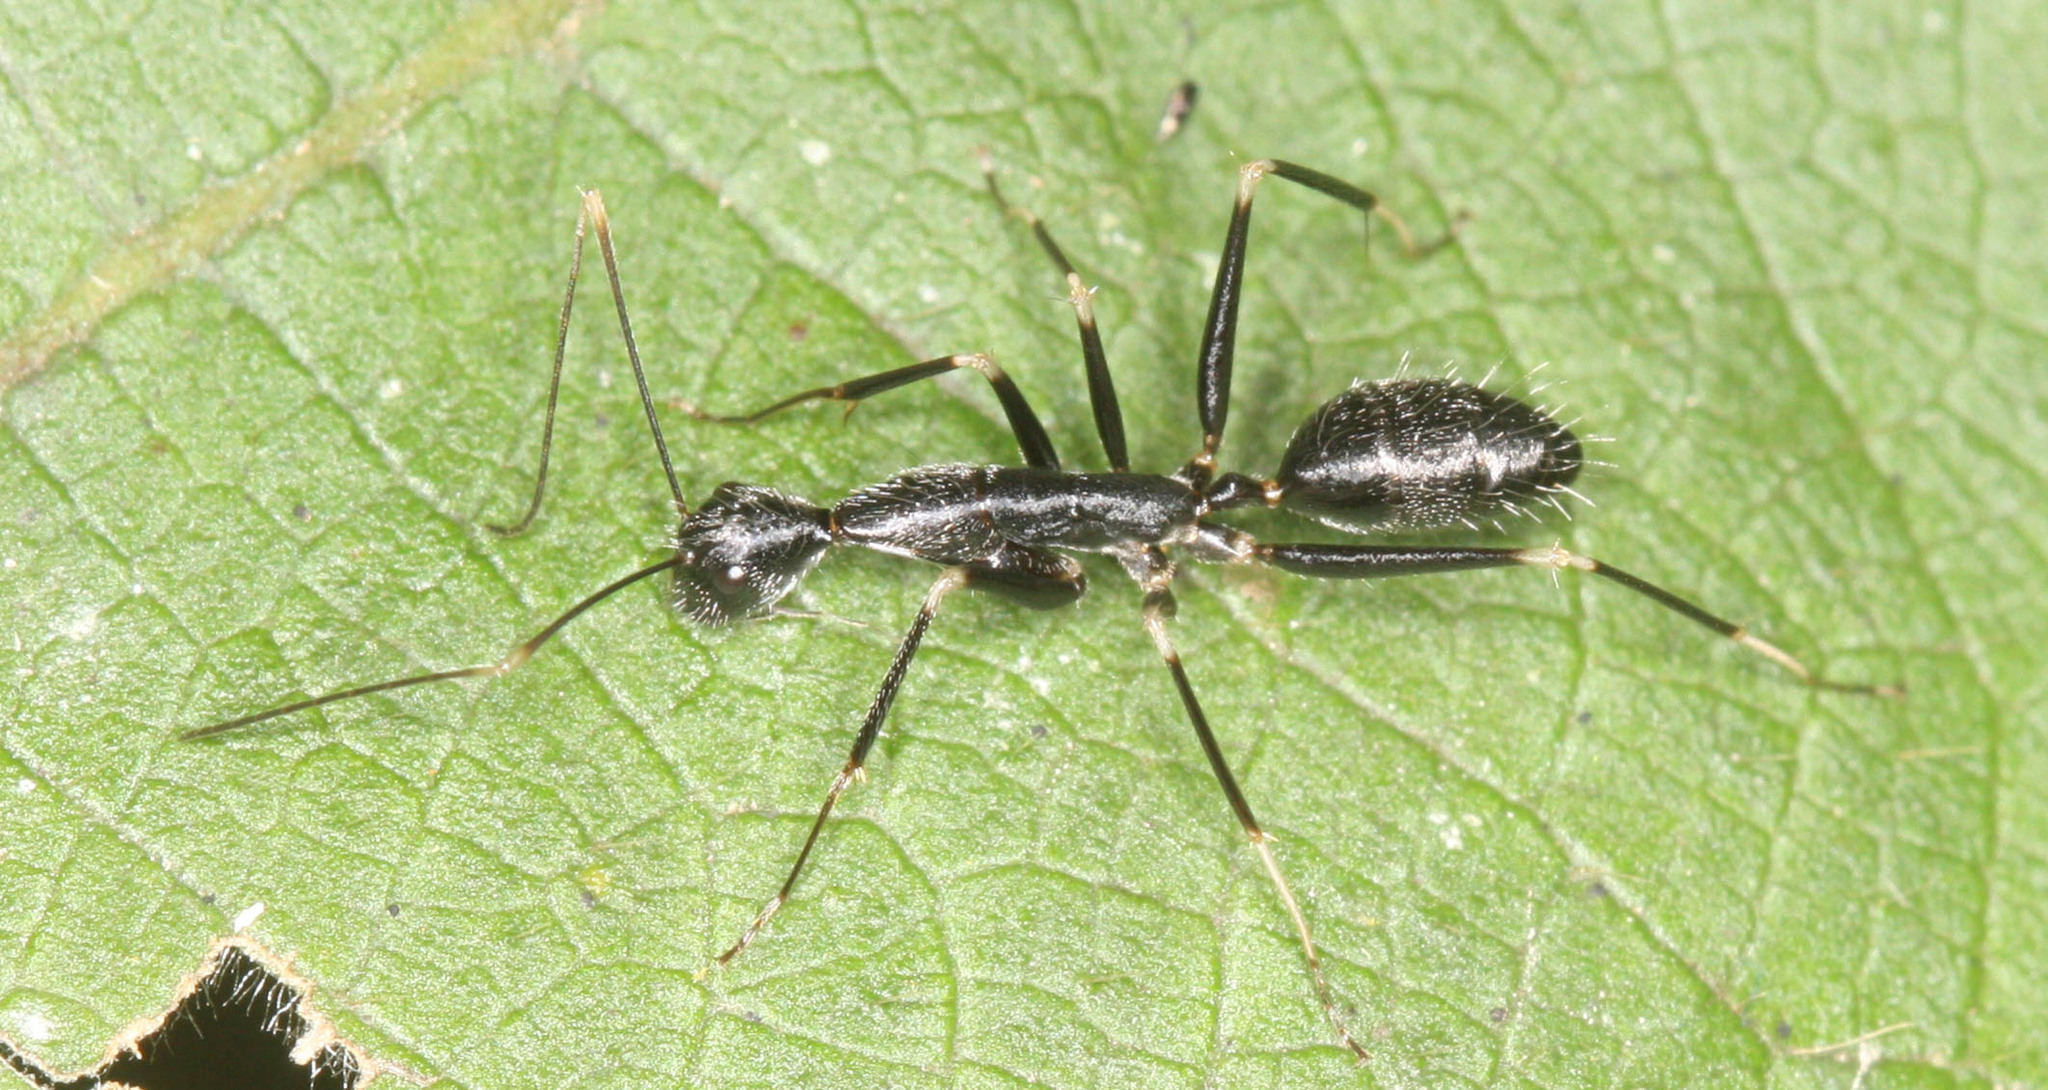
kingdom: Animalia
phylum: Arthropoda
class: Insecta
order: Hymenoptera
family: Formicidae
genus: Camponotus
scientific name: Camponotus hildebrandti
